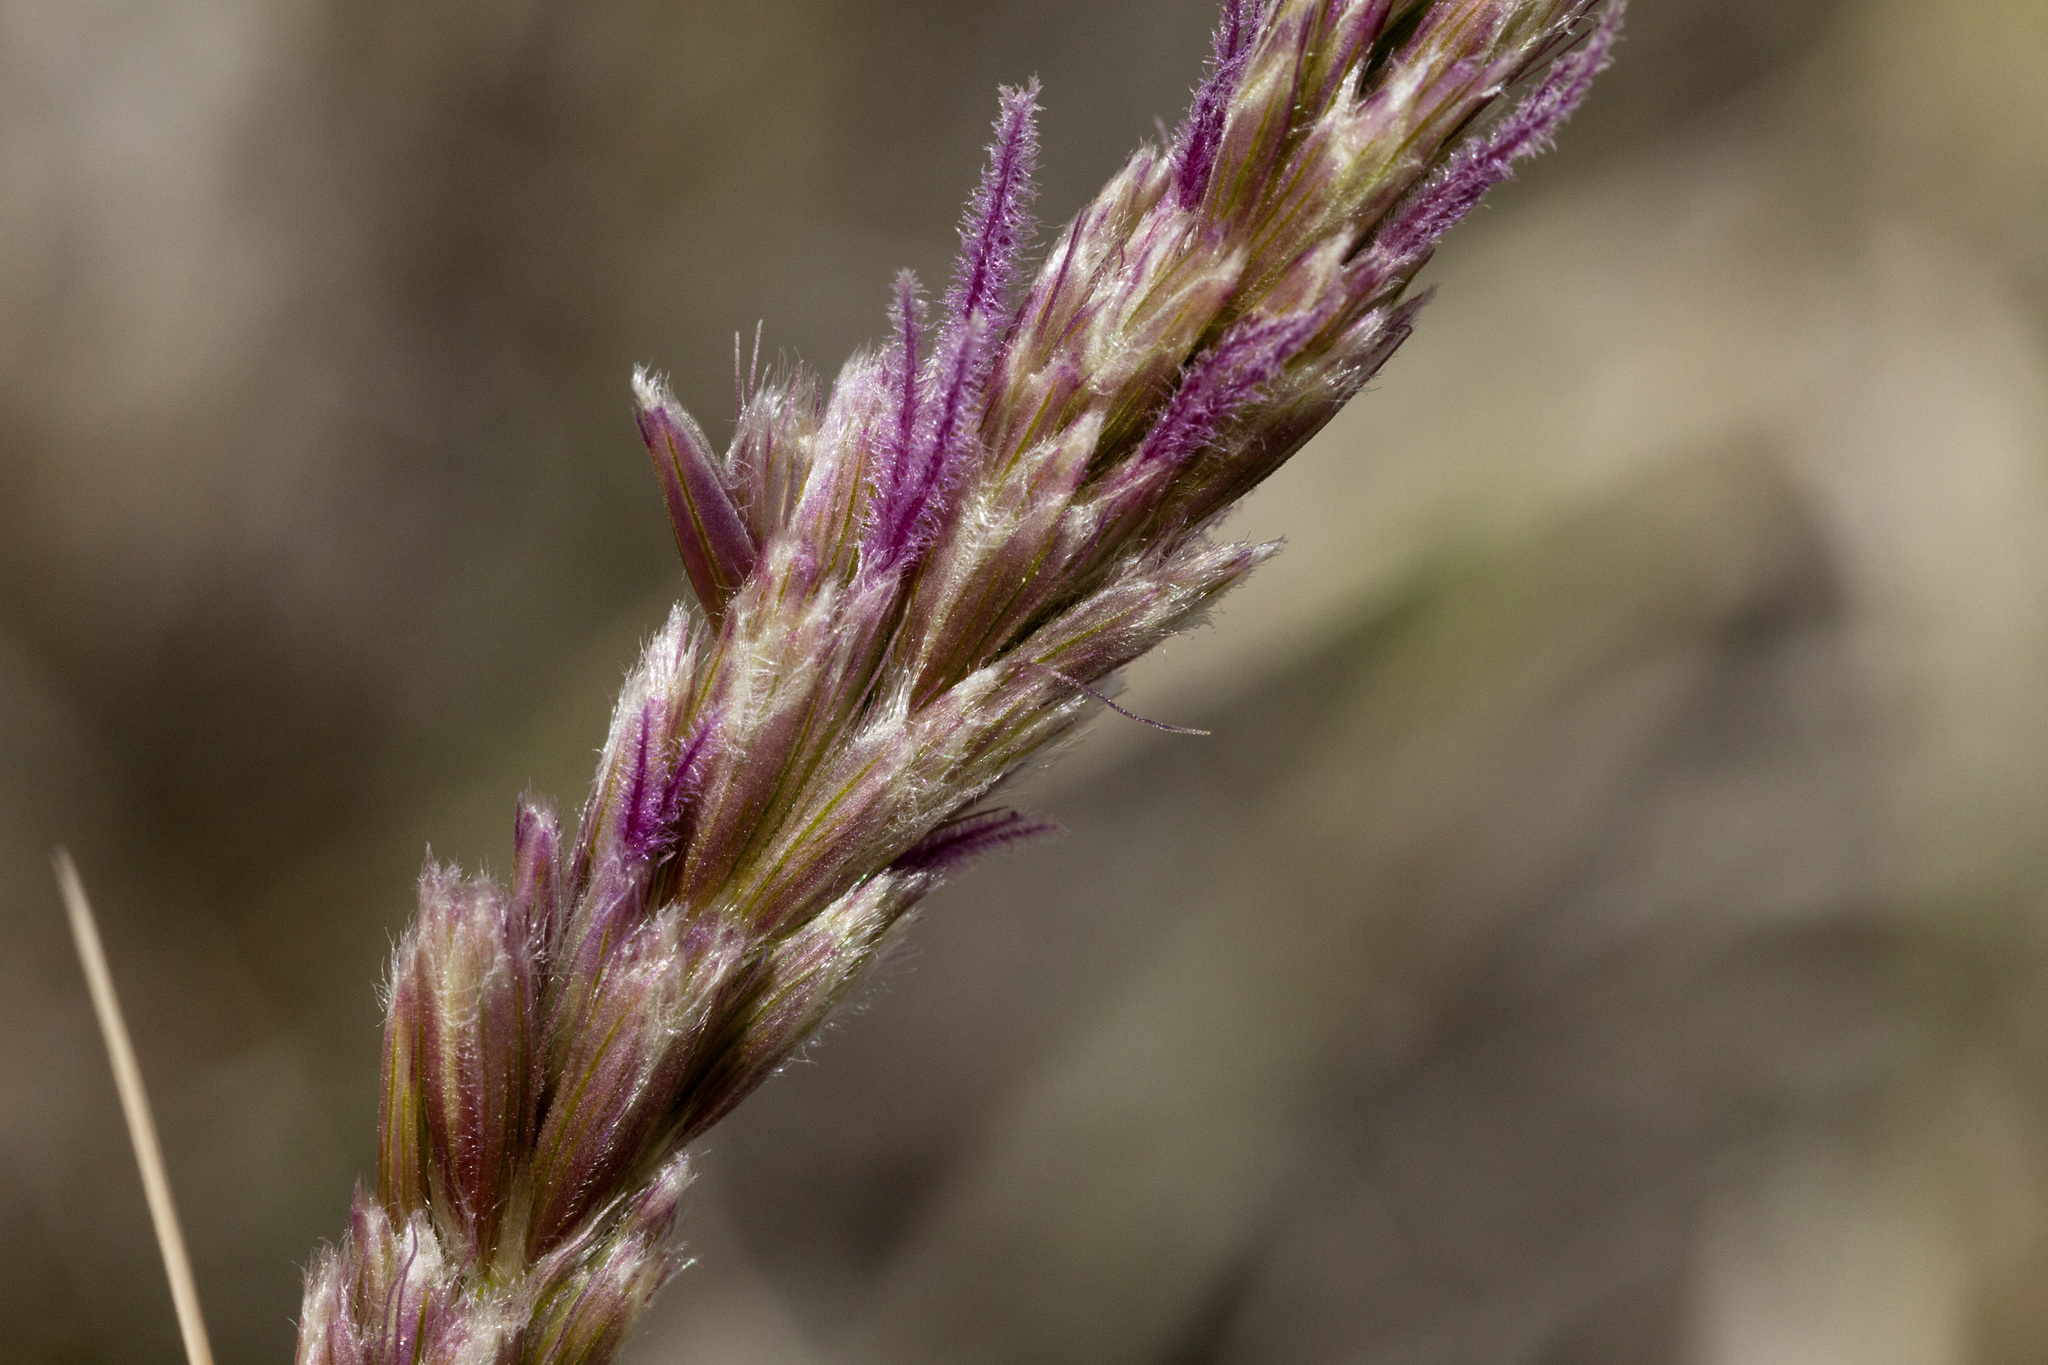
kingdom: Plantae
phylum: Tracheophyta
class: Liliopsida
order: Poales
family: Poaceae
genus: Hilaria
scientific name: Hilaria rigida
